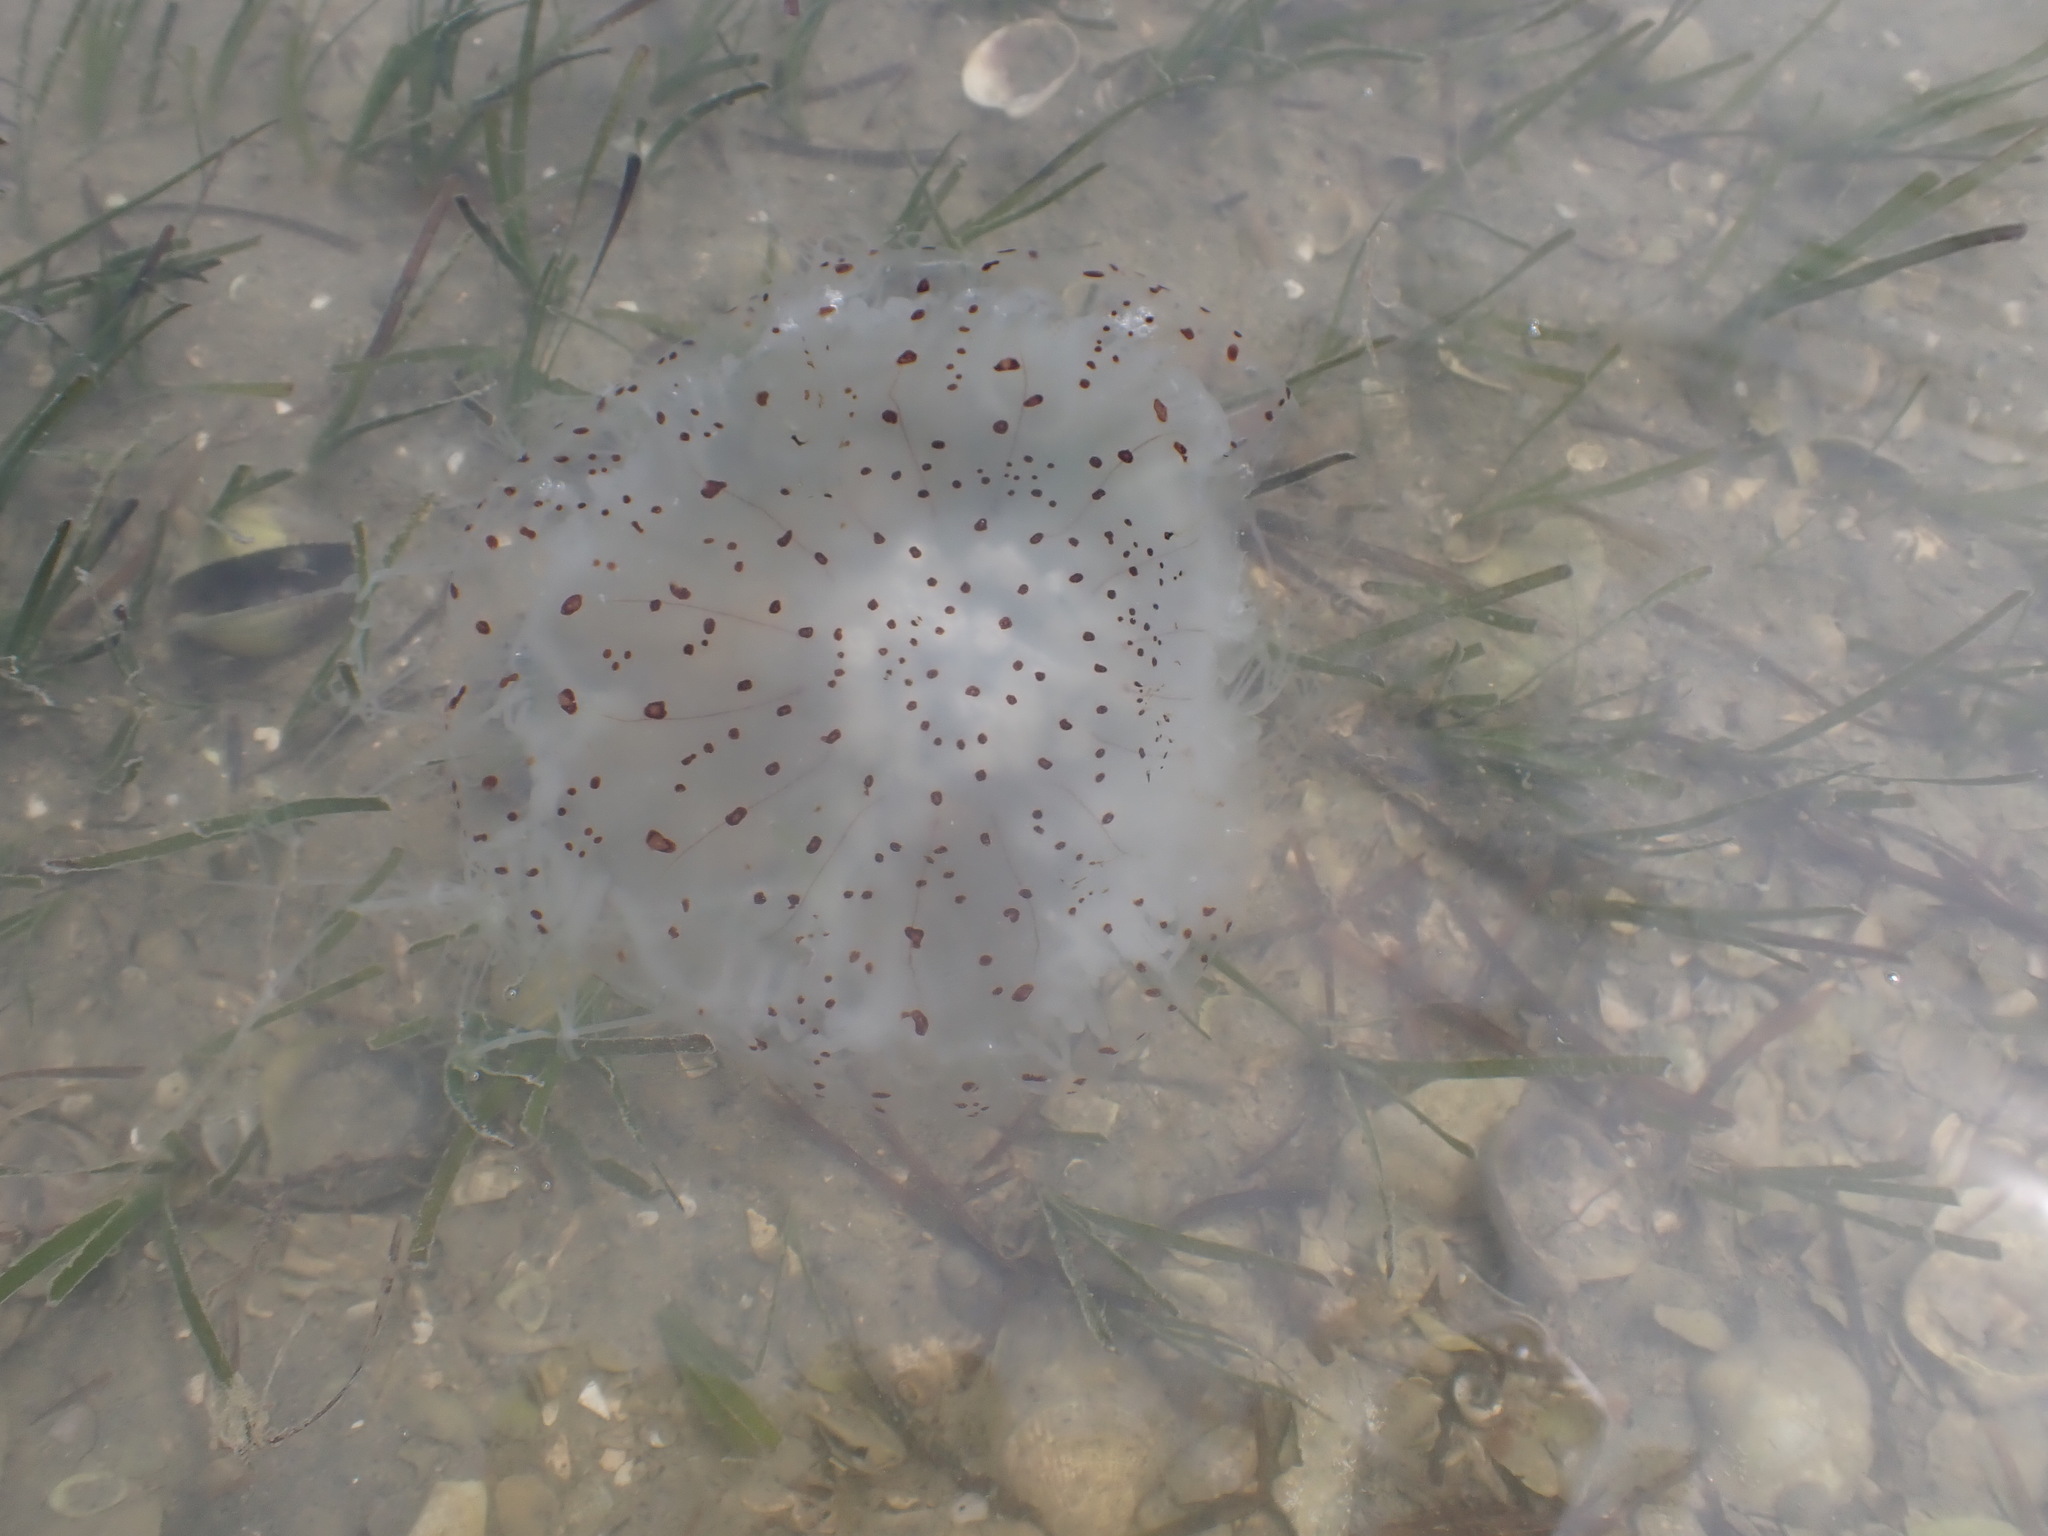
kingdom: Animalia
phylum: Cnidaria
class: Scyphozoa
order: Semaeostomeae
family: Cyaneidae
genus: Desmonema
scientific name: Desmonema gaudichaudi
